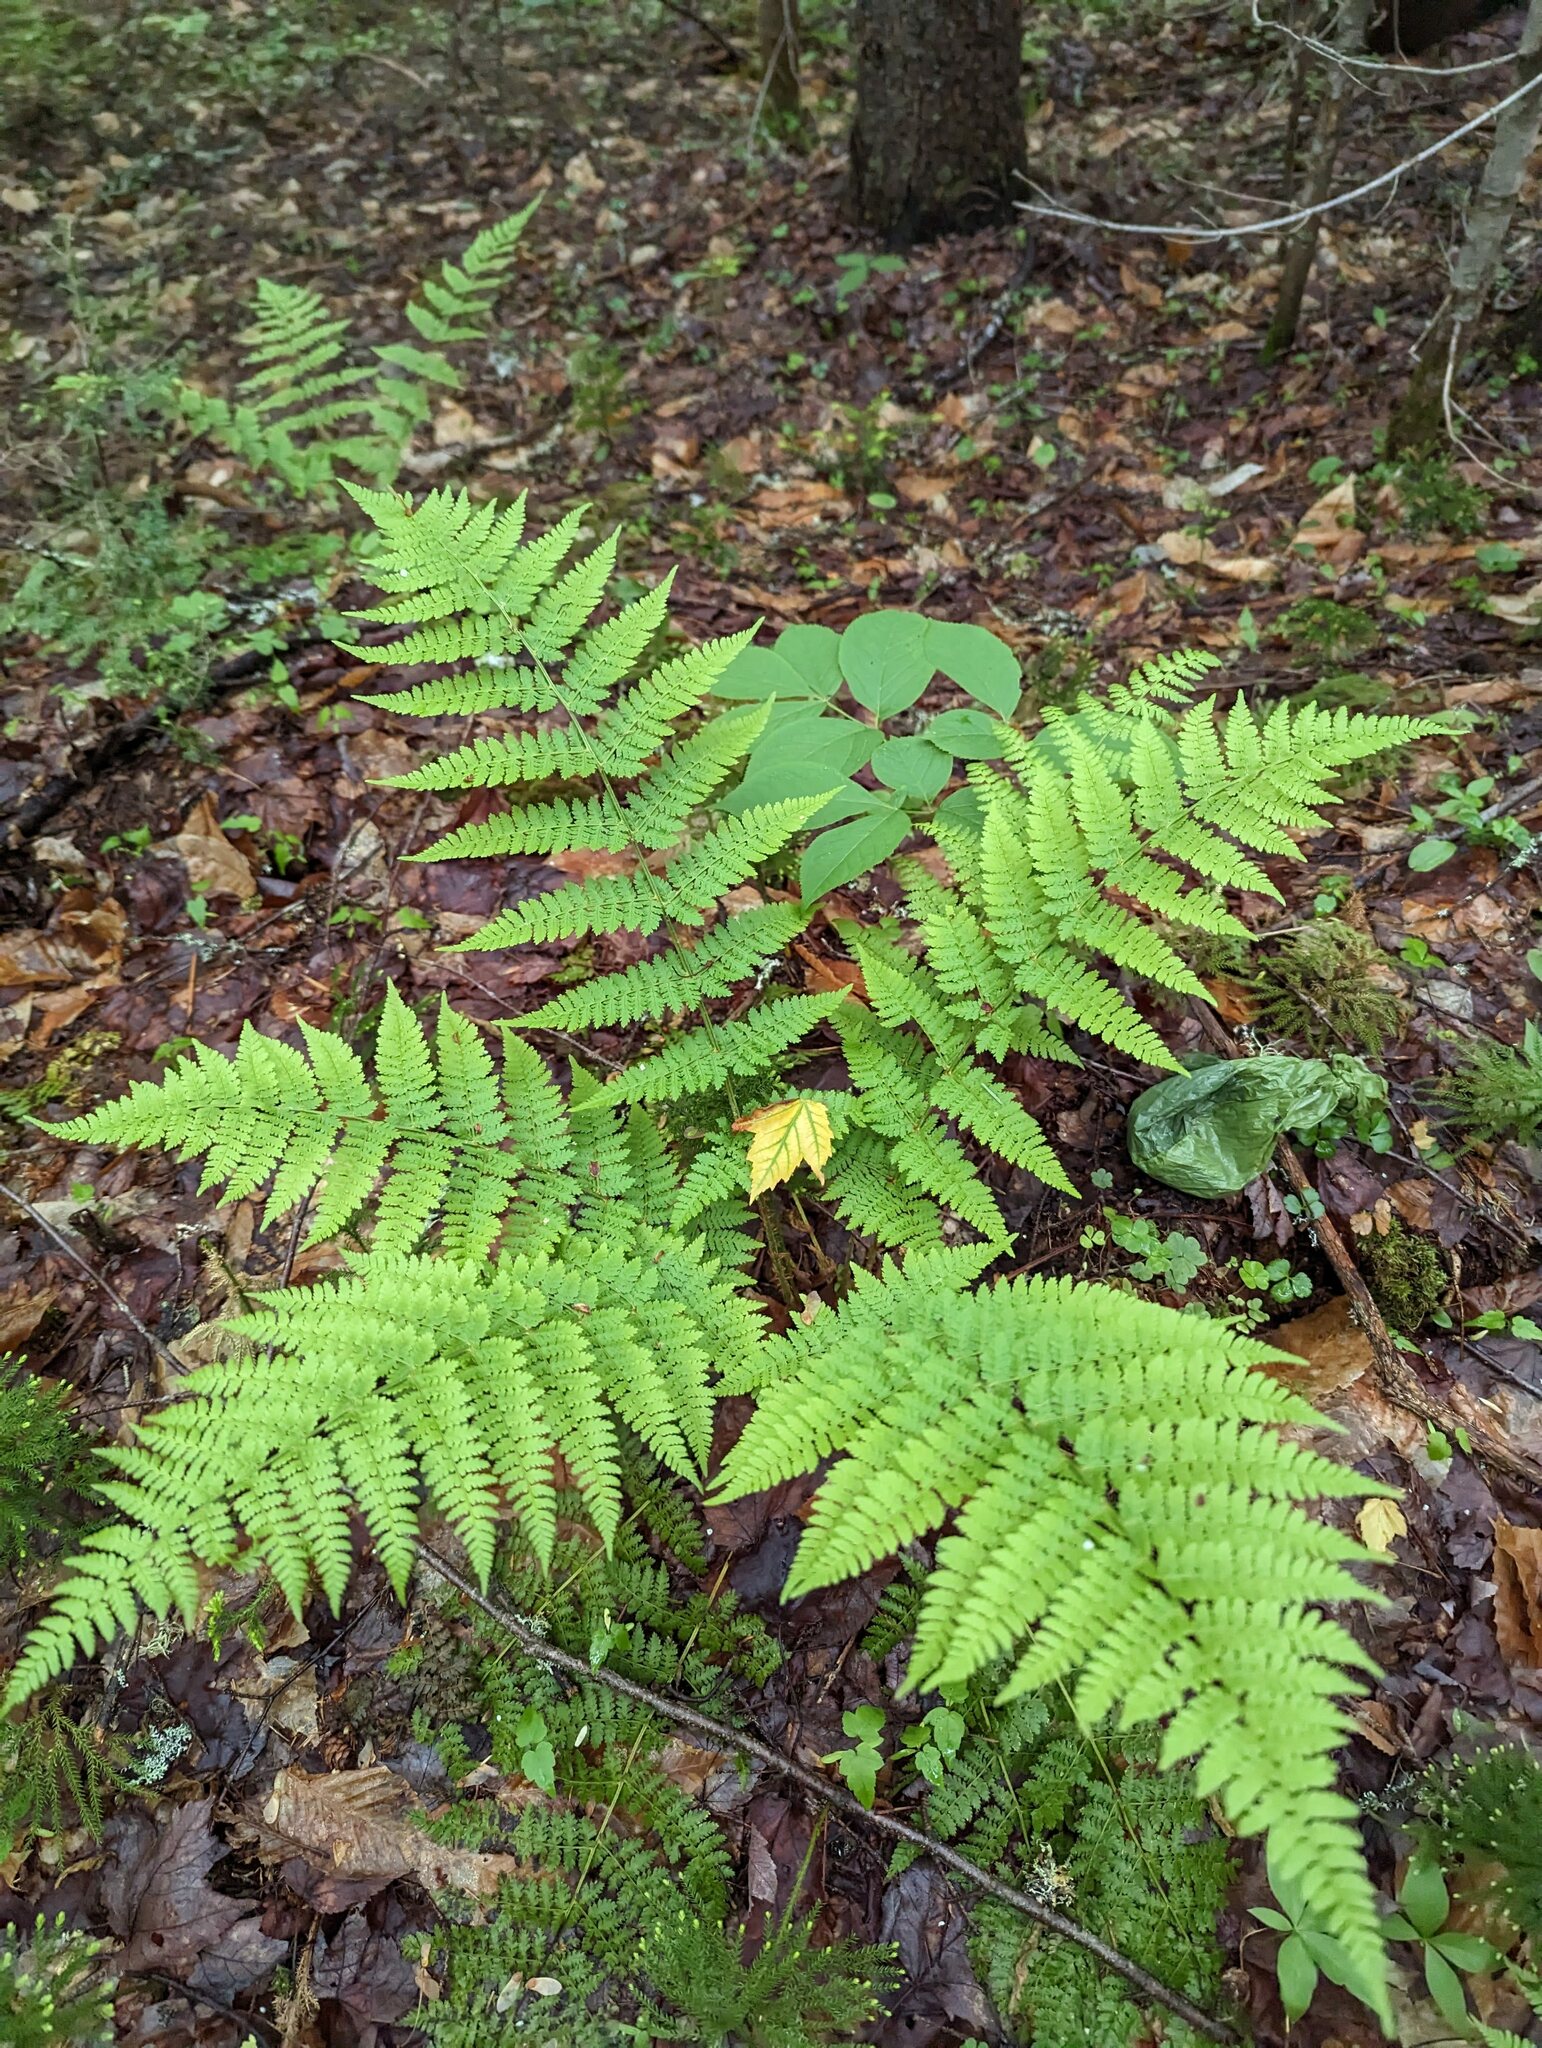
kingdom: Plantae
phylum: Tracheophyta
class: Polypodiopsida
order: Polypodiales
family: Dryopteridaceae
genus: Dryopteris
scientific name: Dryopteris intermedia
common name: Evergreen wood fern
